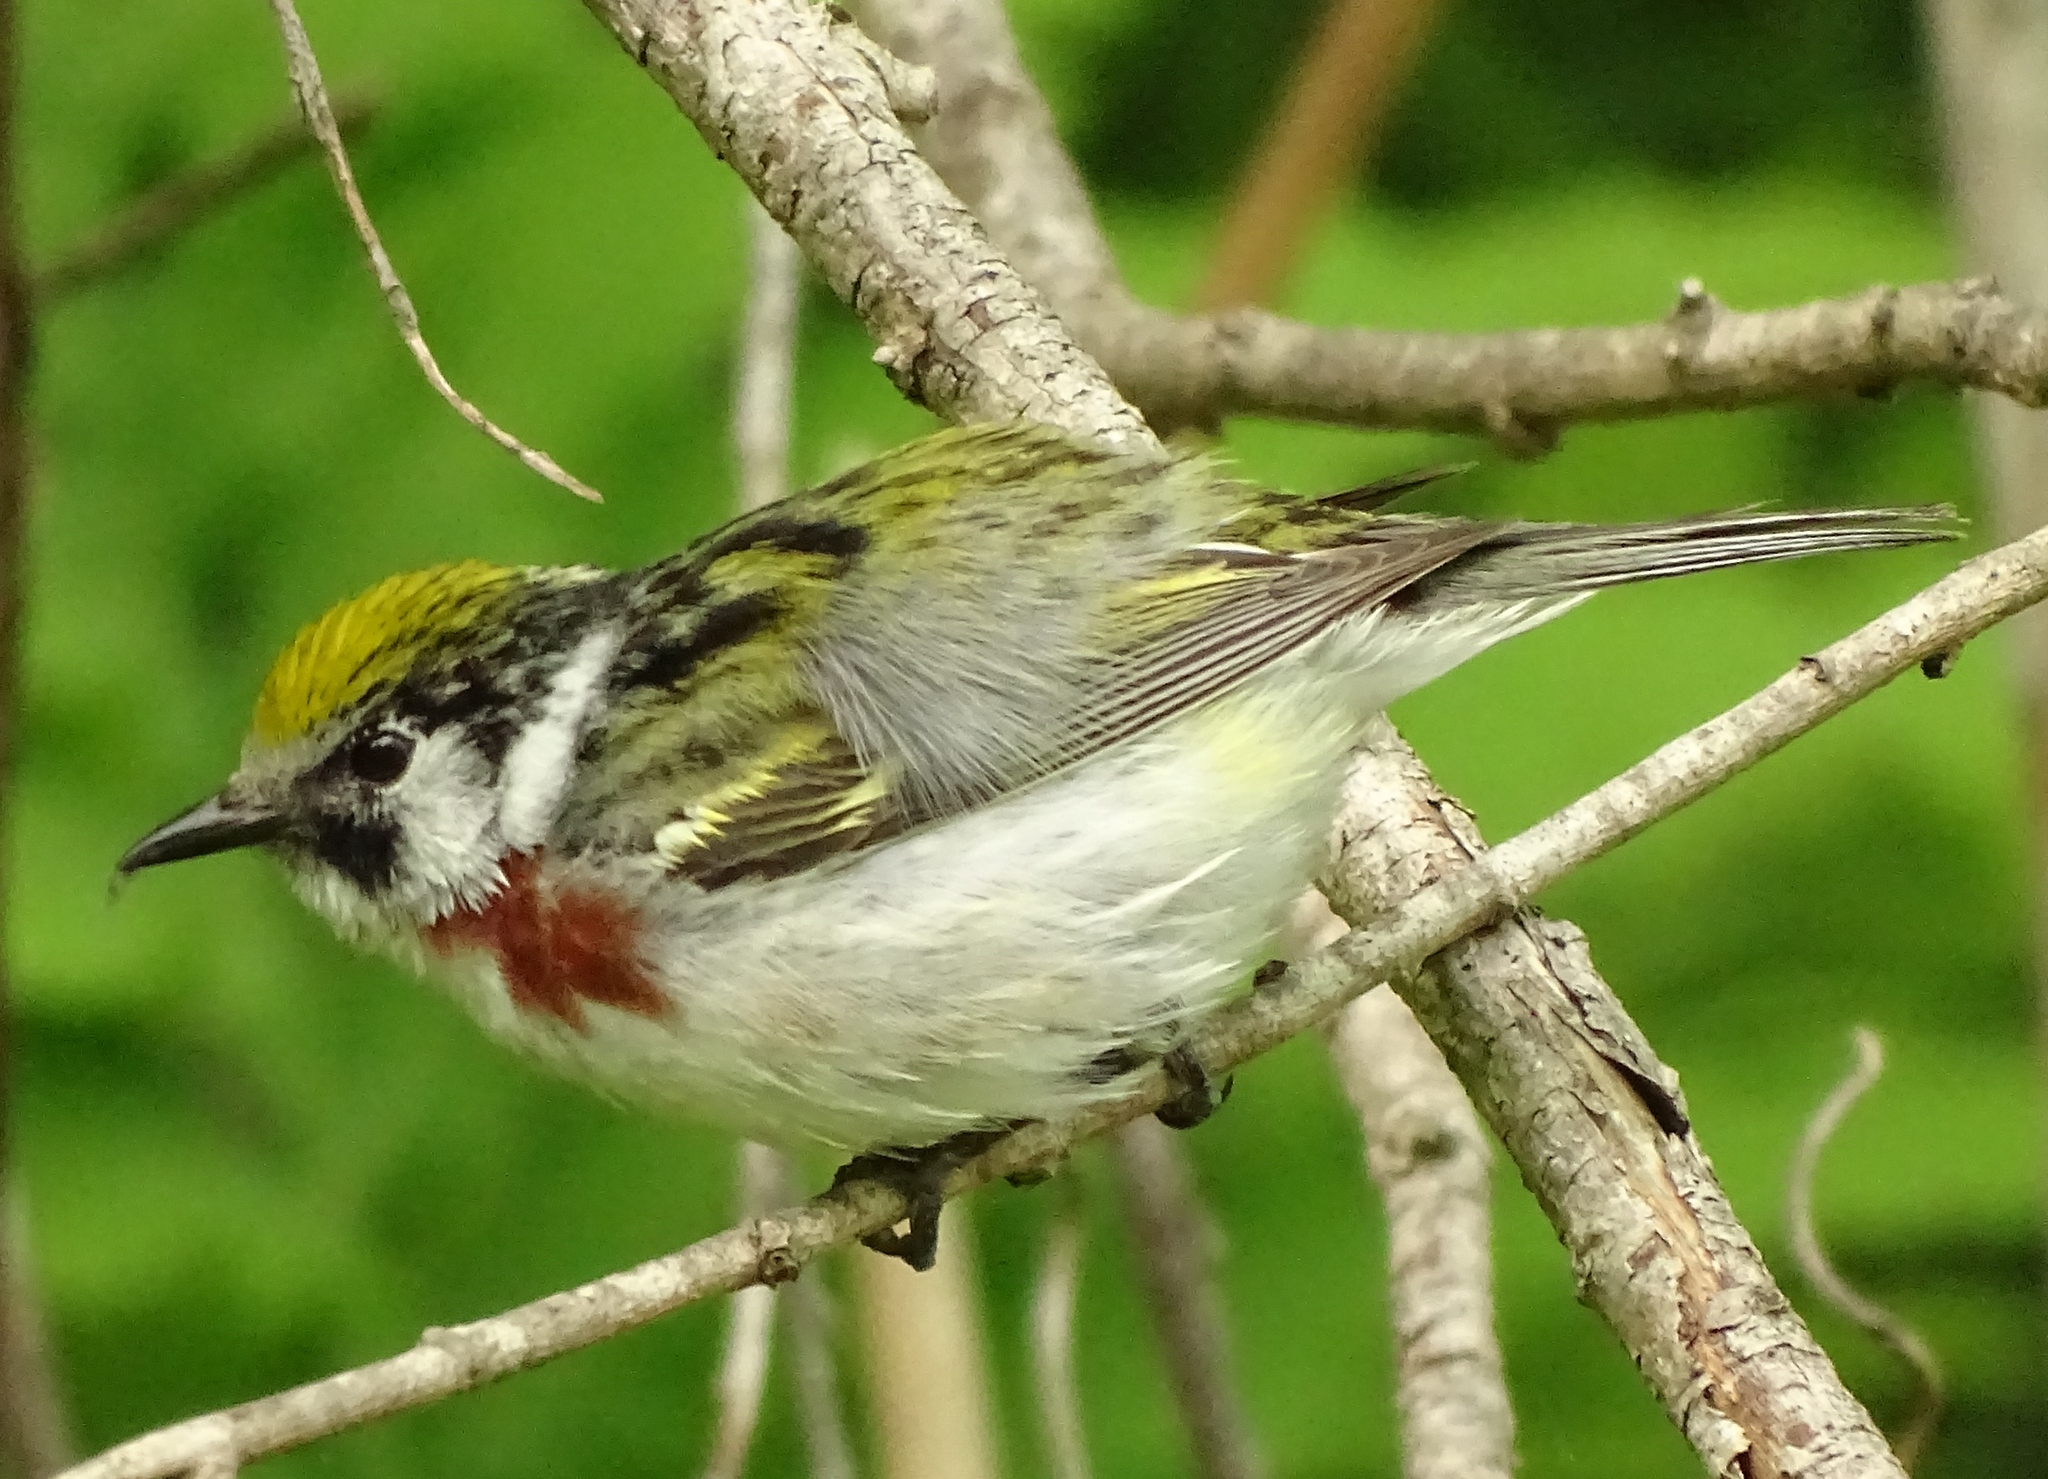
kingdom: Animalia
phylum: Chordata
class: Aves
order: Passeriformes
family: Parulidae
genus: Setophaga
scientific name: Setophaga pensylvanica
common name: Chestnut-sided warbler
